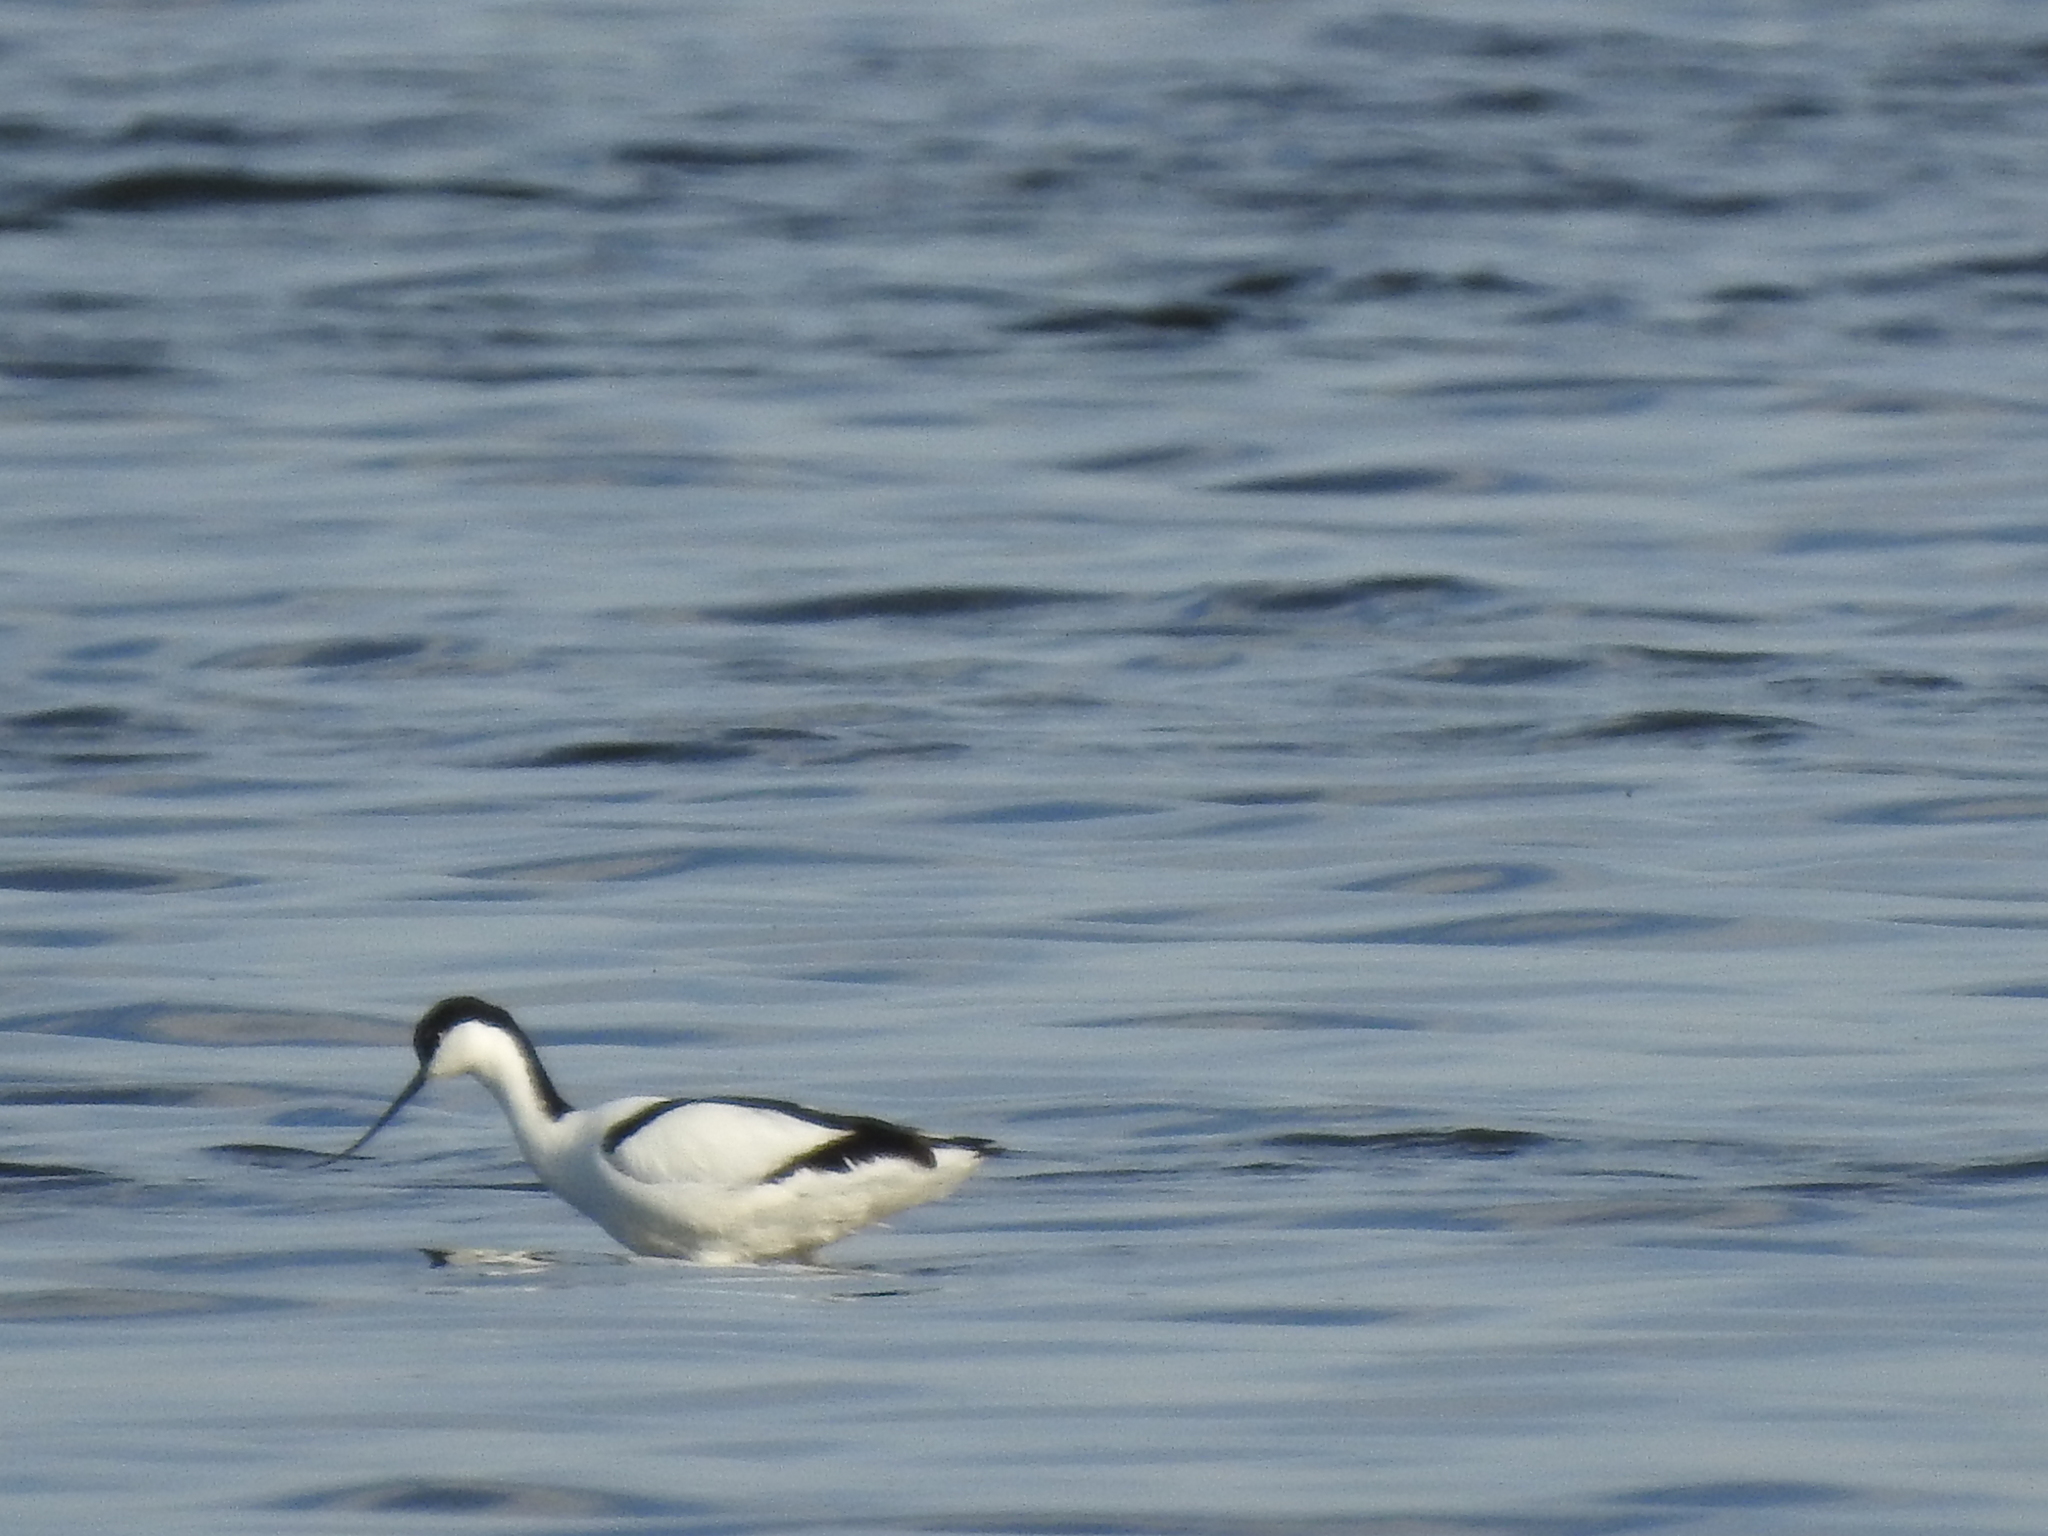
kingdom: Animalia
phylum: Chordata
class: Aves
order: Charadriiformes
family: Recurvirostridae
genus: Recurvirostra
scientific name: Recurvirostra avosetta
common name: Pied avocet
